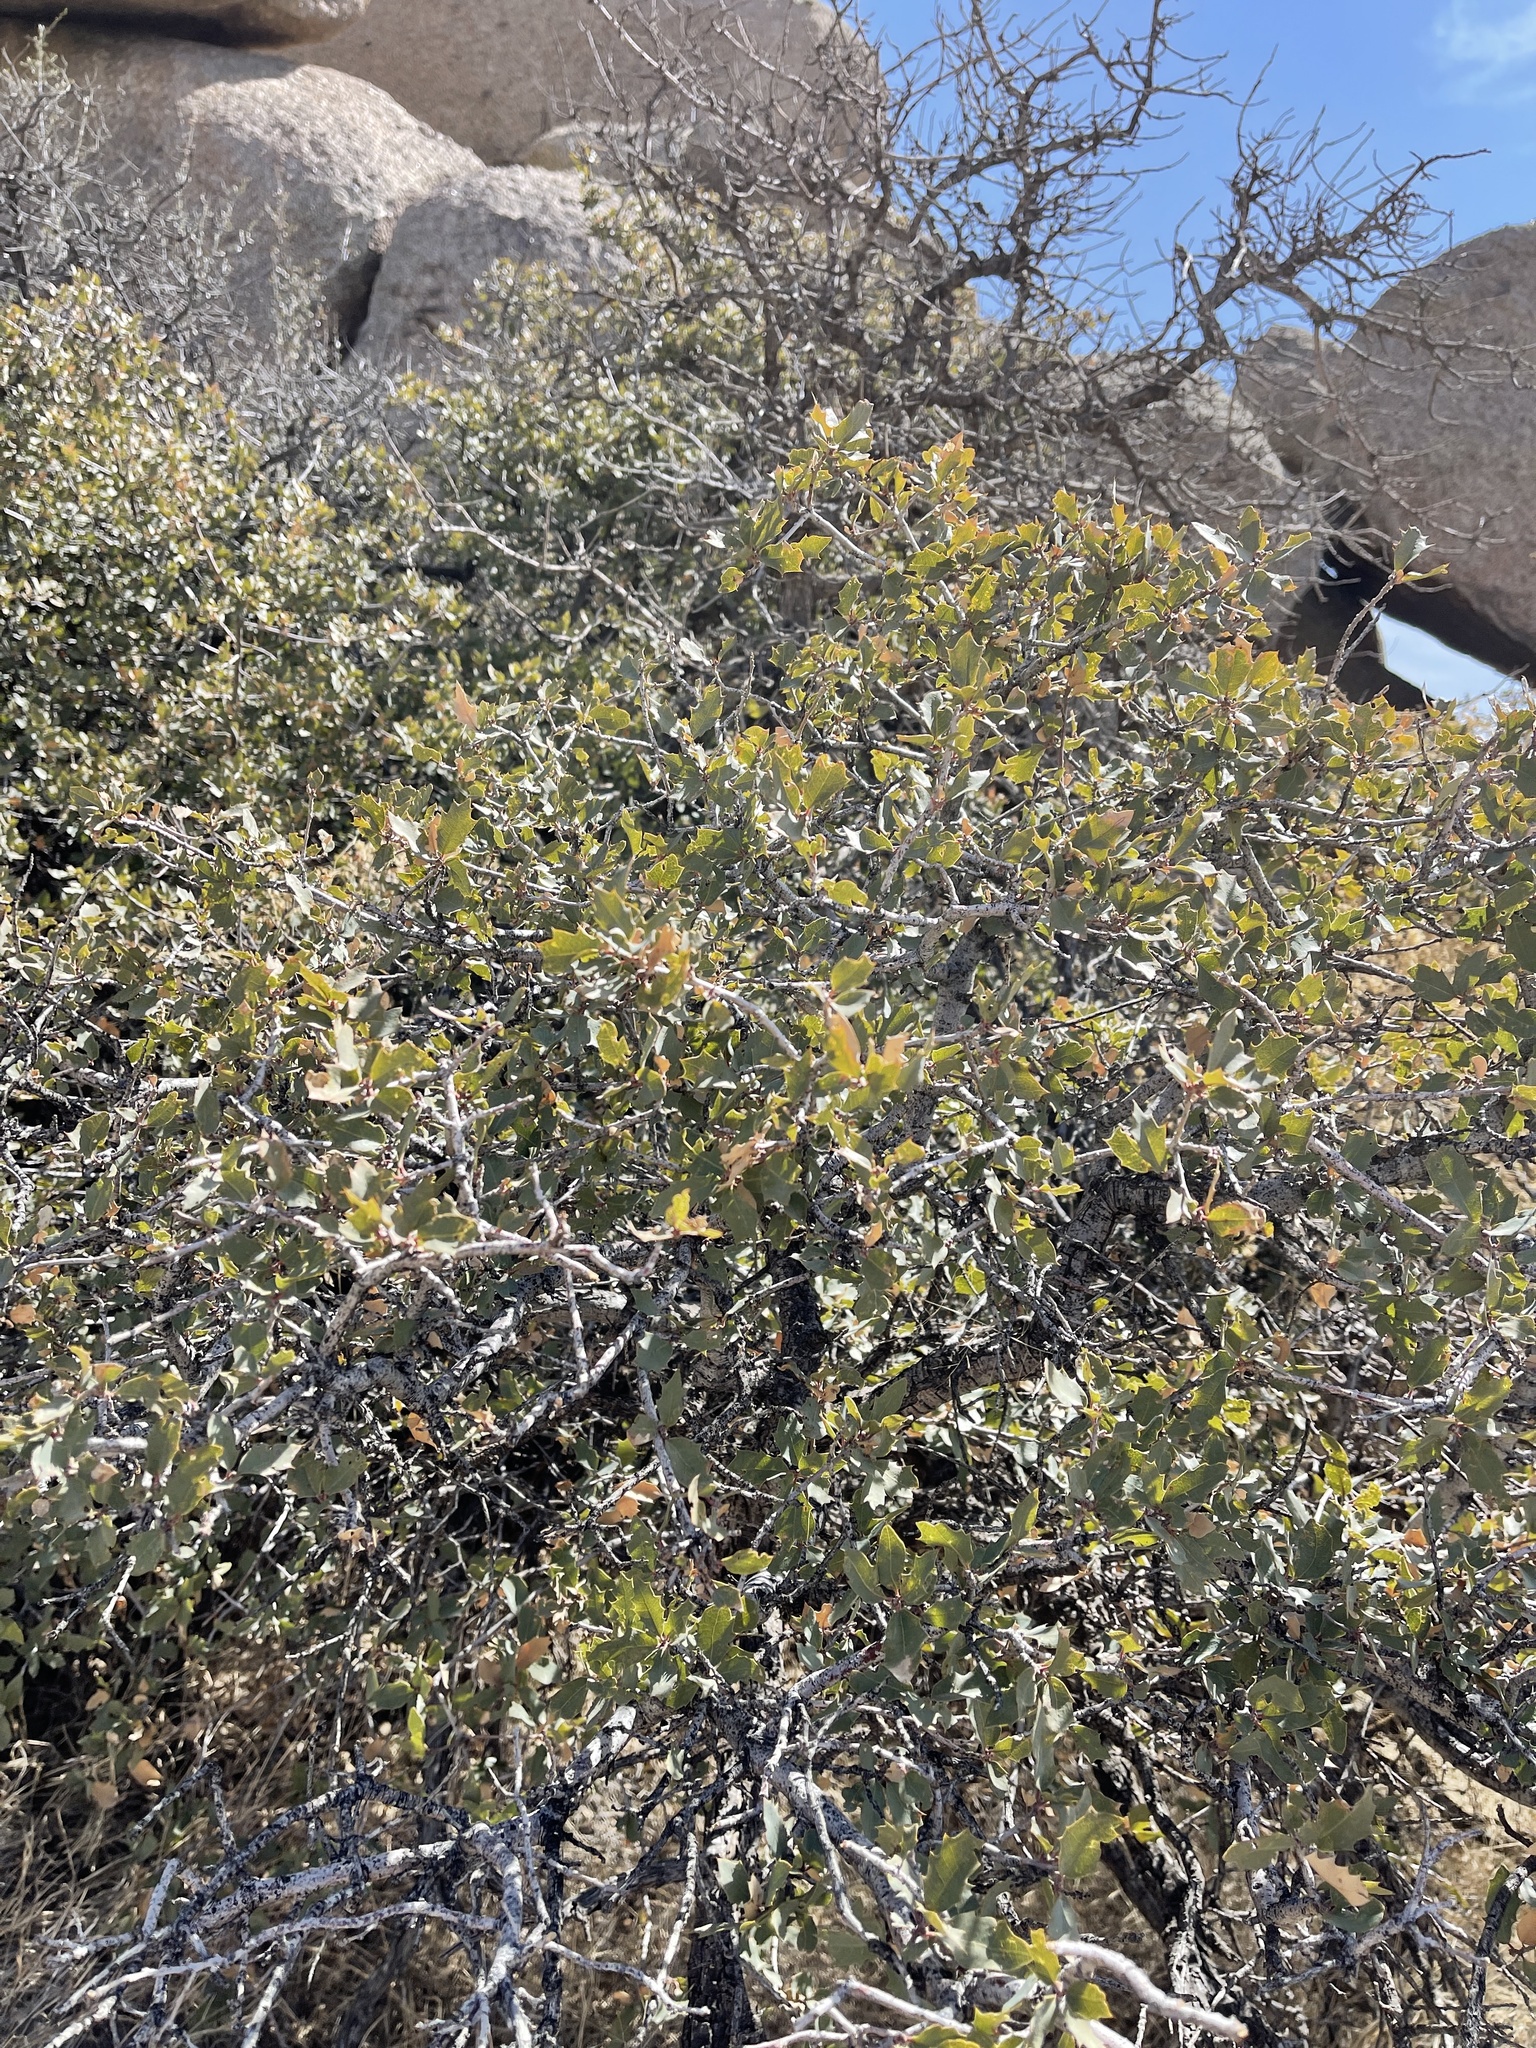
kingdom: Plantae
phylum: Tracheophyta
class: Magnoliopsida
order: Fagales
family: Fagaceae
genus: Quercus
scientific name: Quercus turbinella
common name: Sonoran scrub oak
